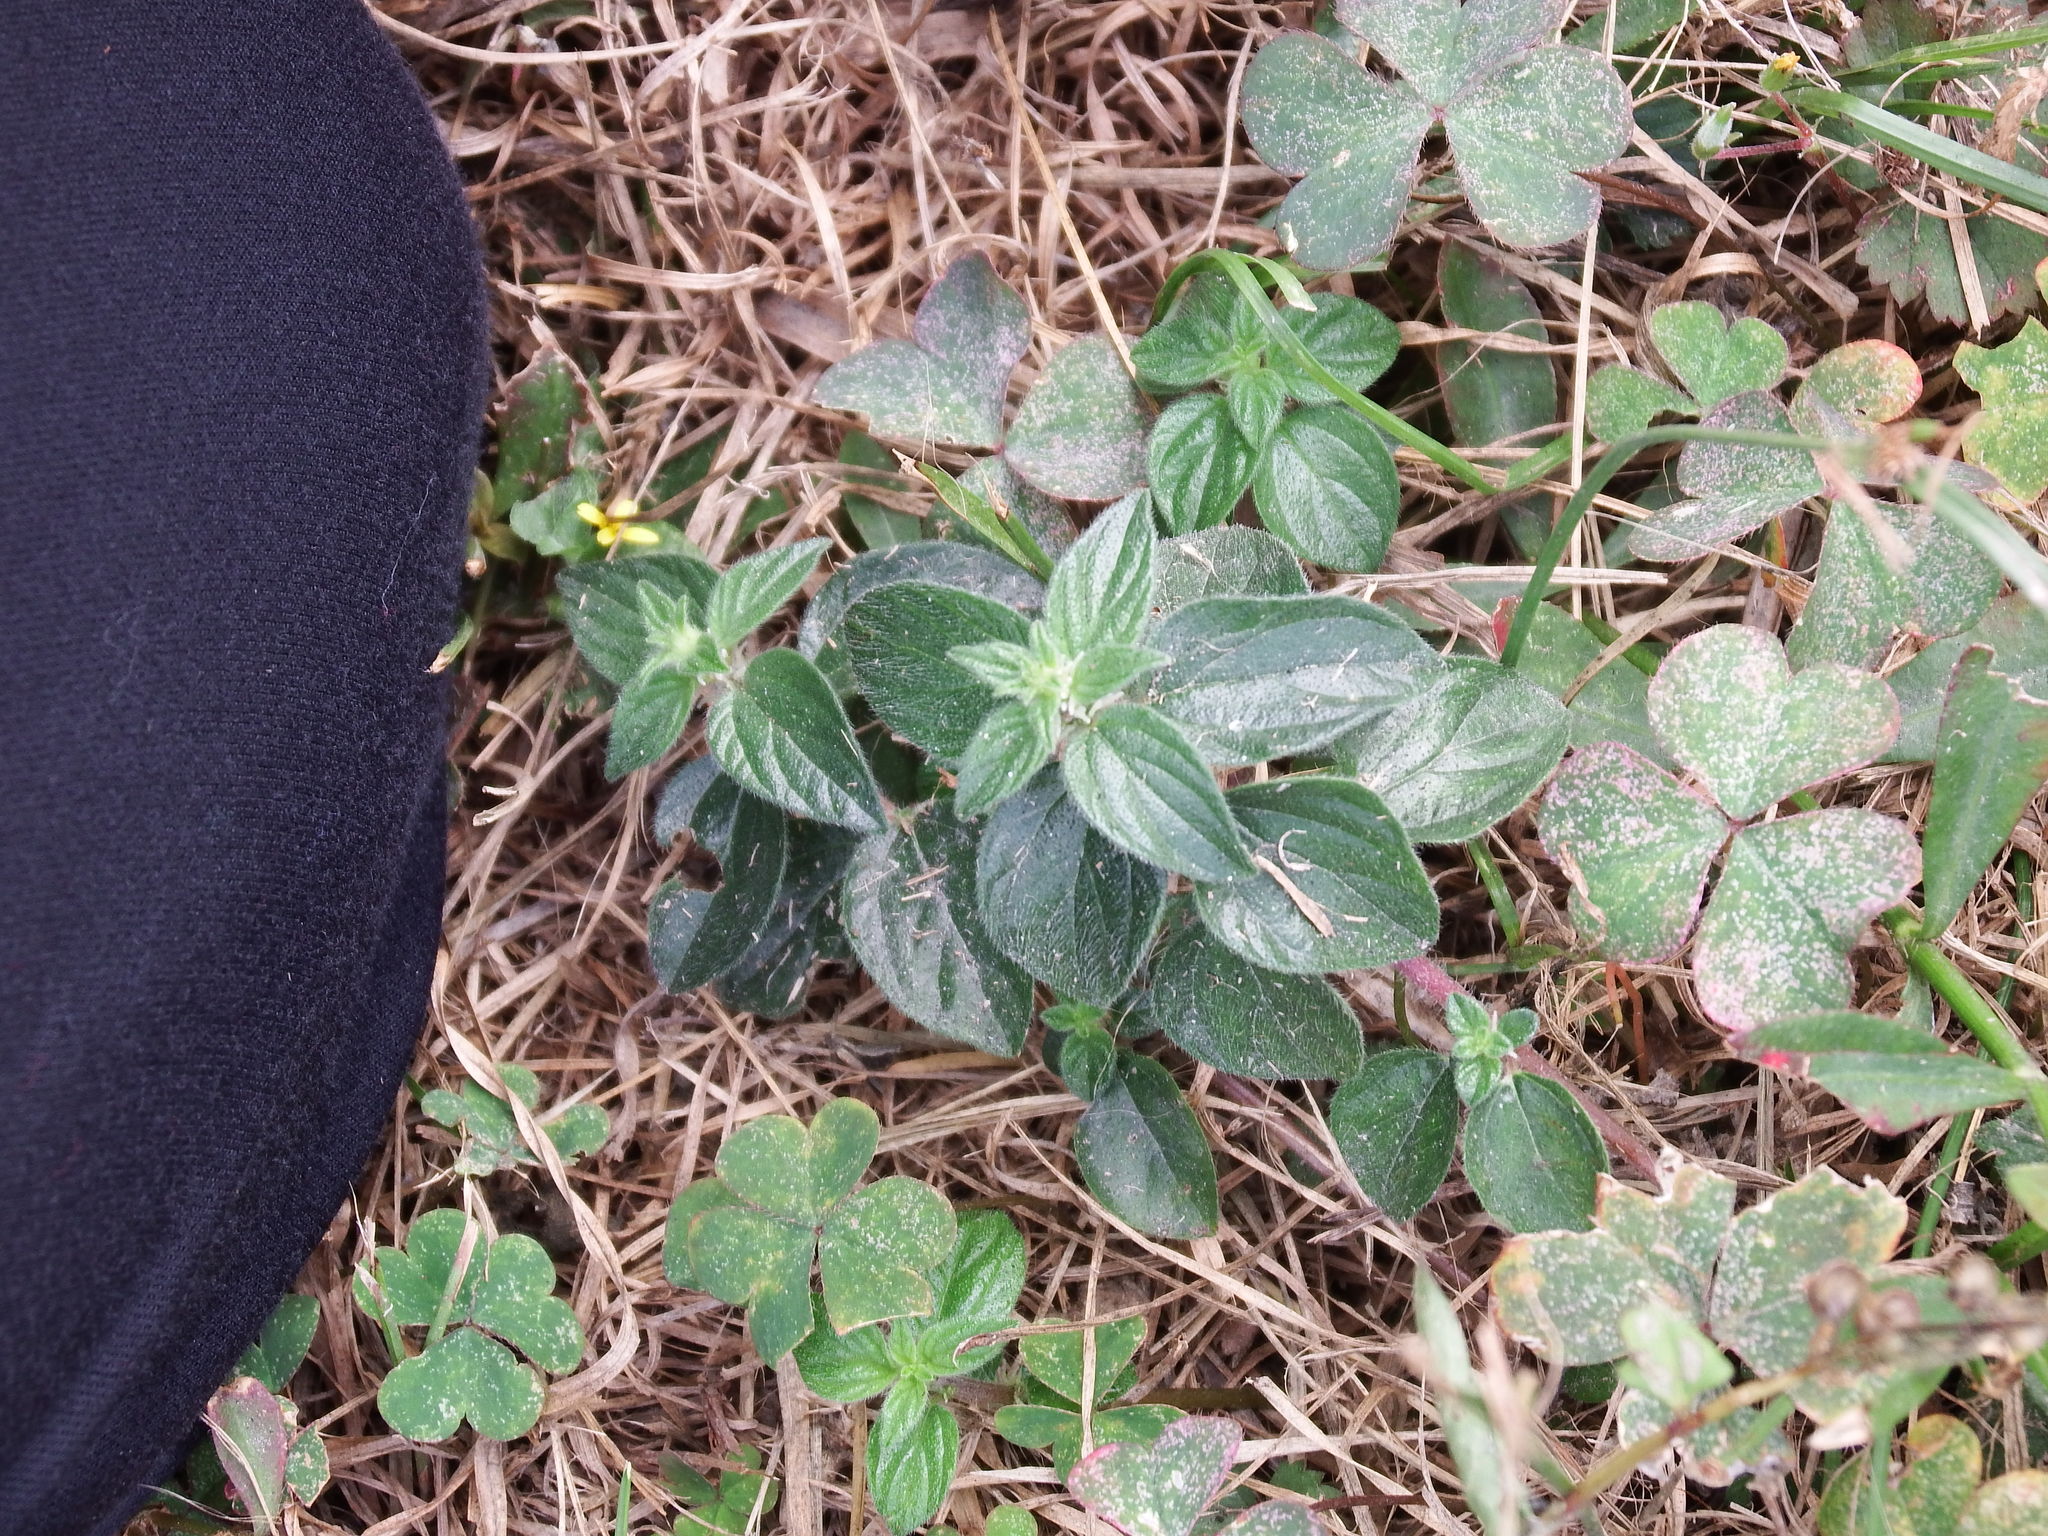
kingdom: Plantae
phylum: Tracheophyta
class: Magnoliopsida
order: Rosales
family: Urticaceae
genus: Pouzolzia
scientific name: Pouzolzia zeylanica
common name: Graceful pouzolzsbush
